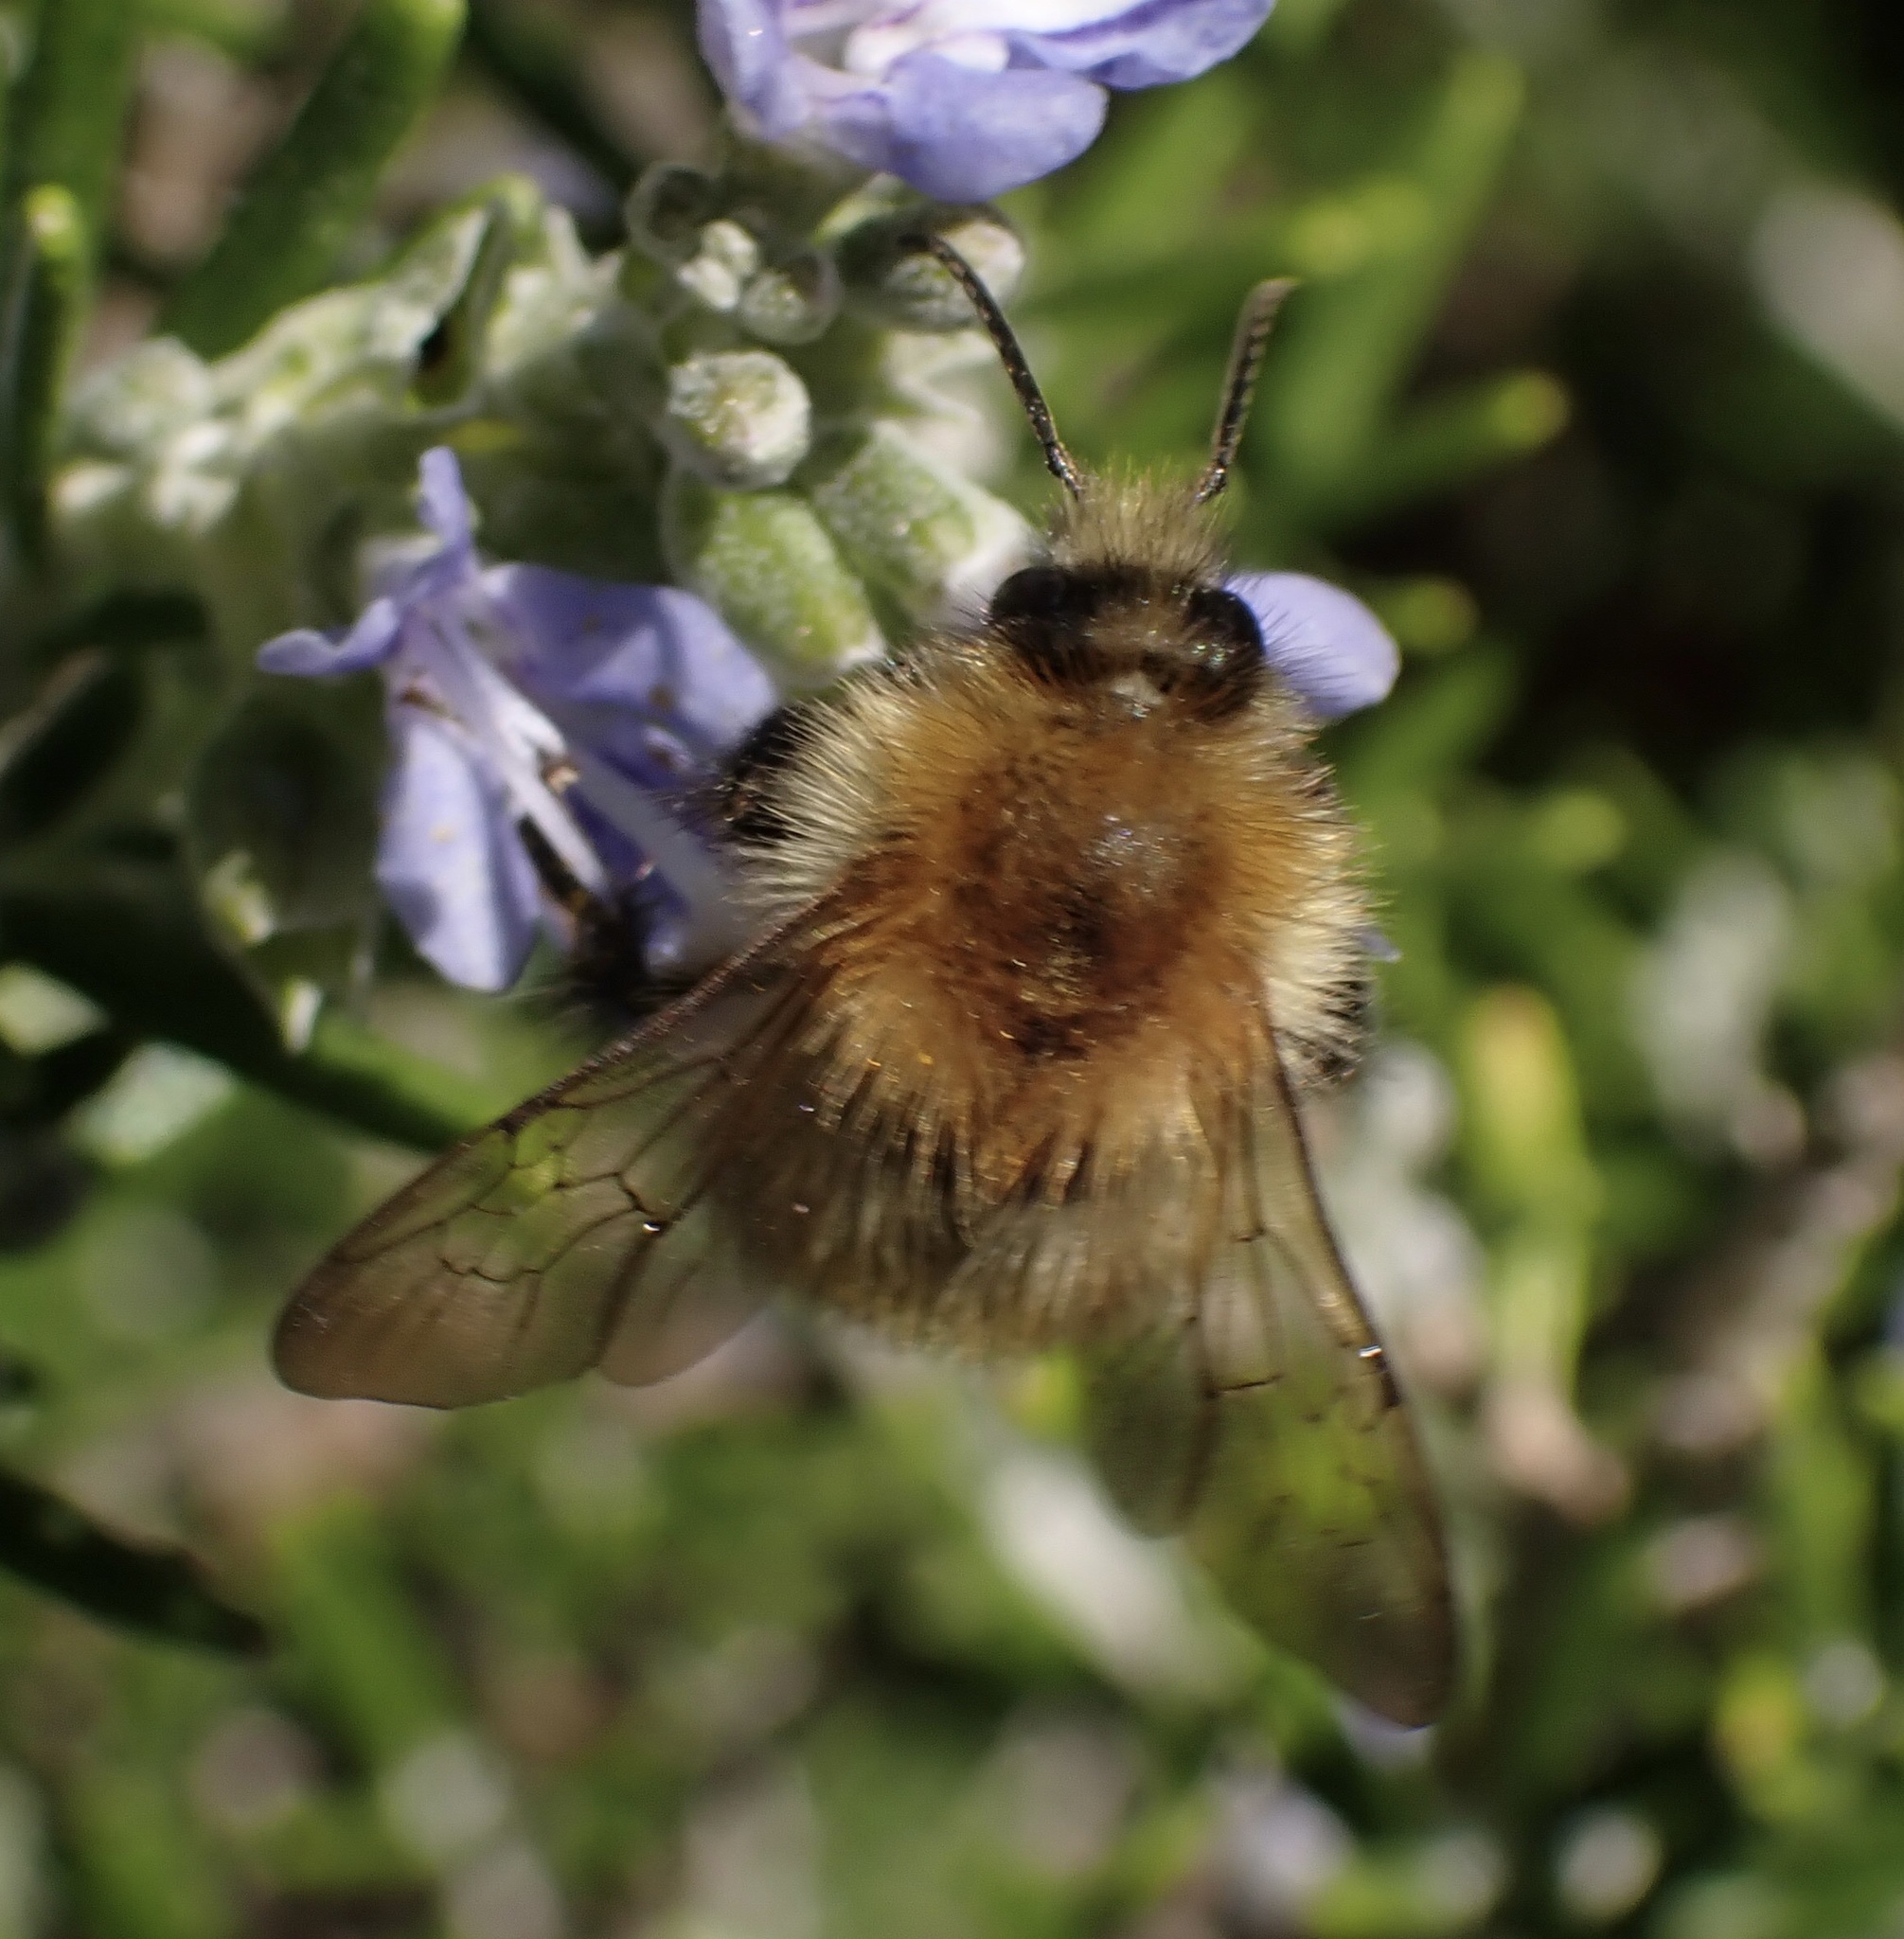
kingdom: Animalia
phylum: Arthropoda
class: Insecta
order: Hymenoptera
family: Apidae
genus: Bombus
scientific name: Bombus pascuorum
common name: Common carder bee
